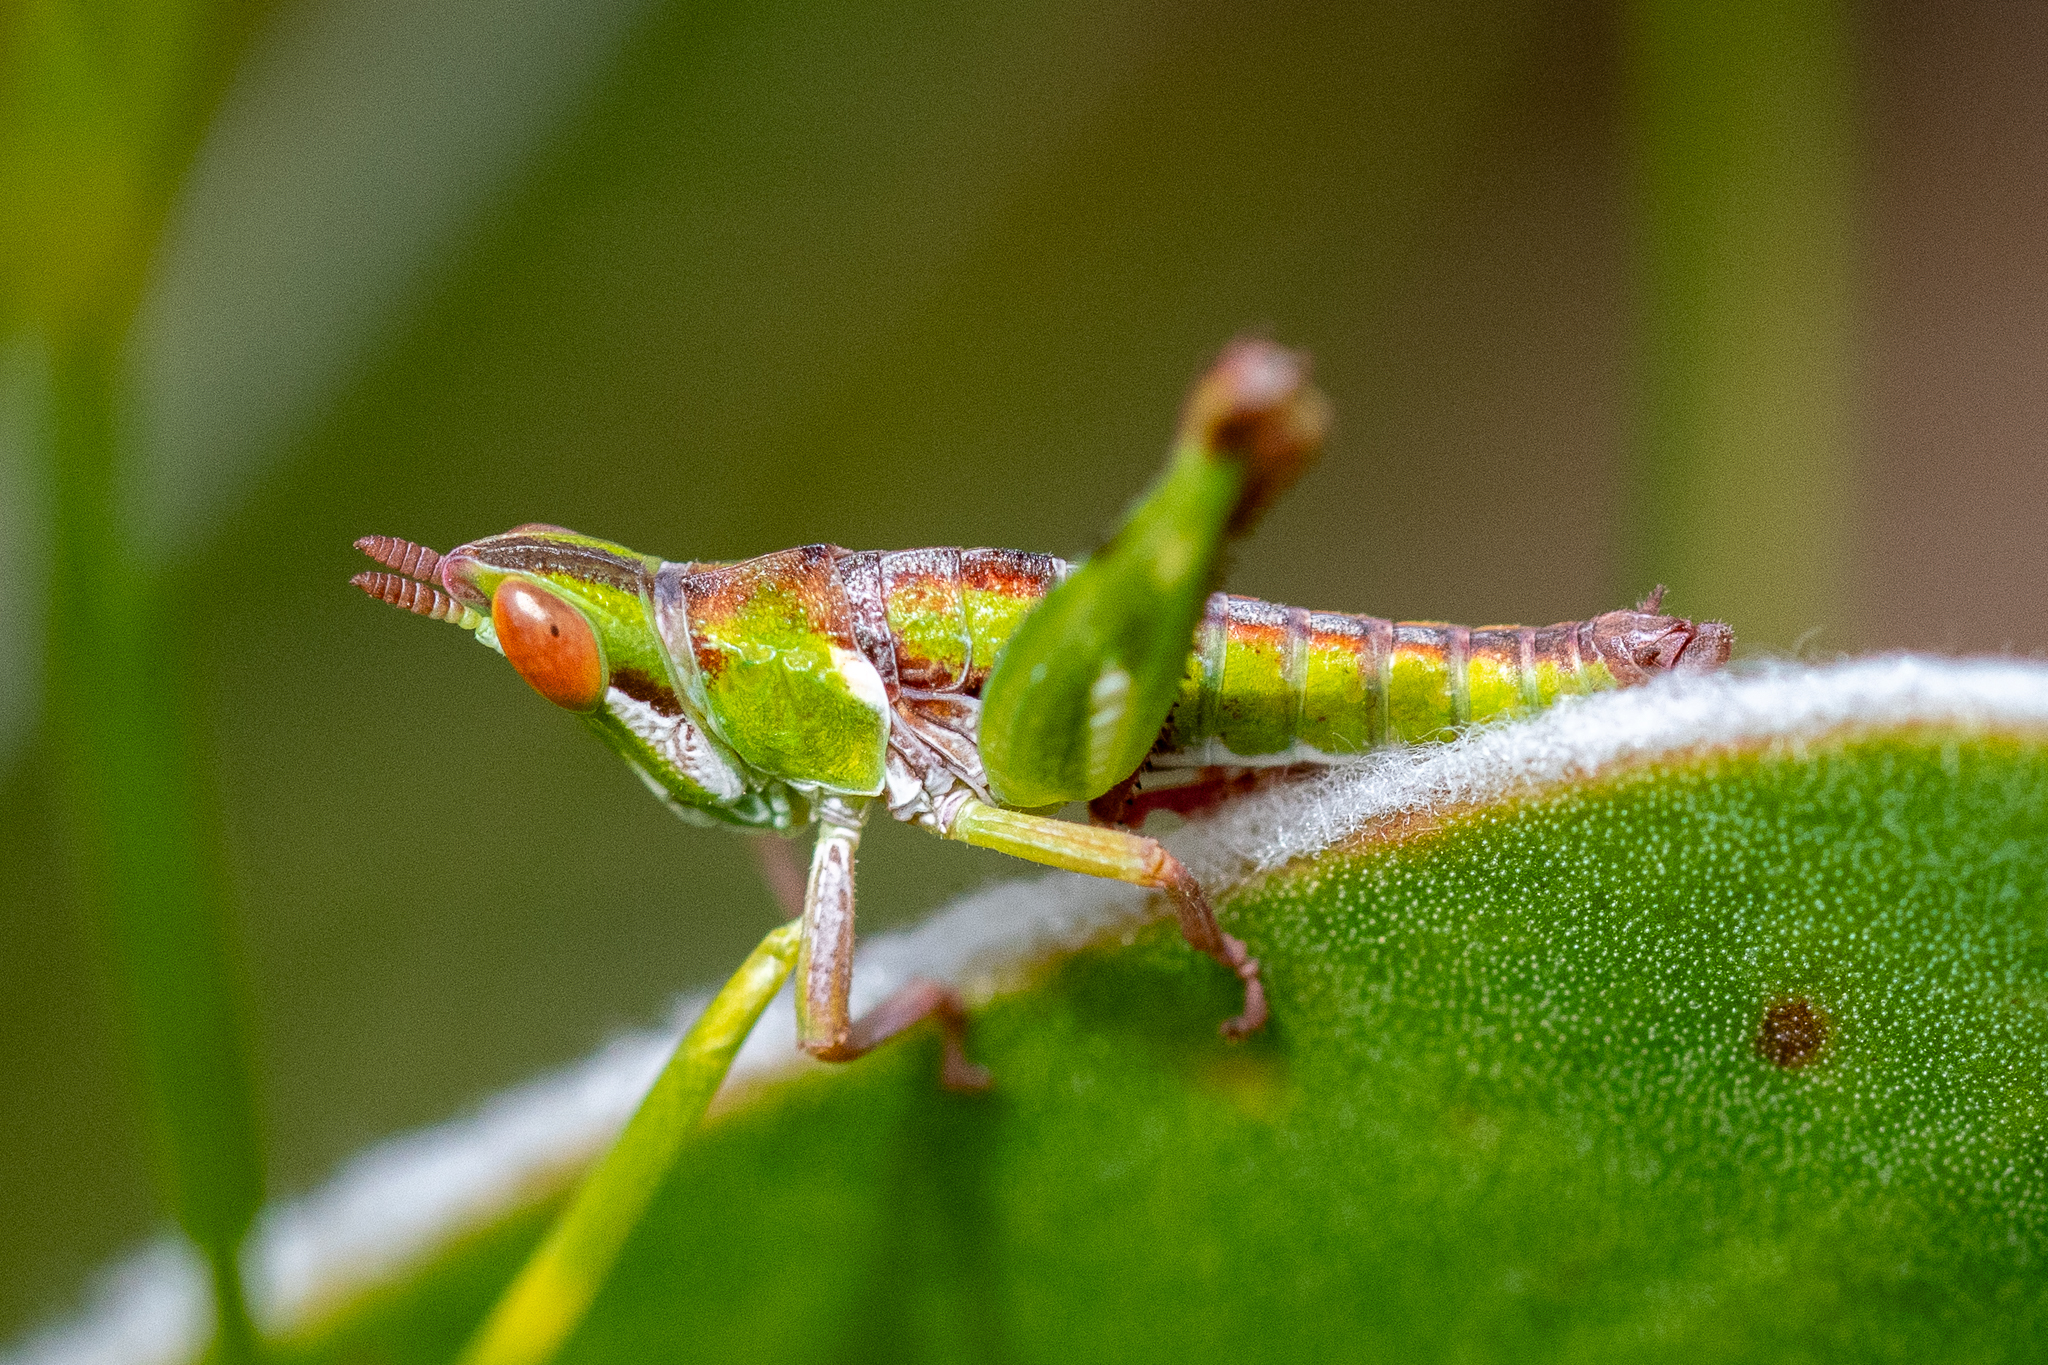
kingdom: Animalia
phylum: Arthropoda
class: Insecta
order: Orthoptera
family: Thericleidae
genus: Thericlesiella
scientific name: Thericlesiella meridionalis
